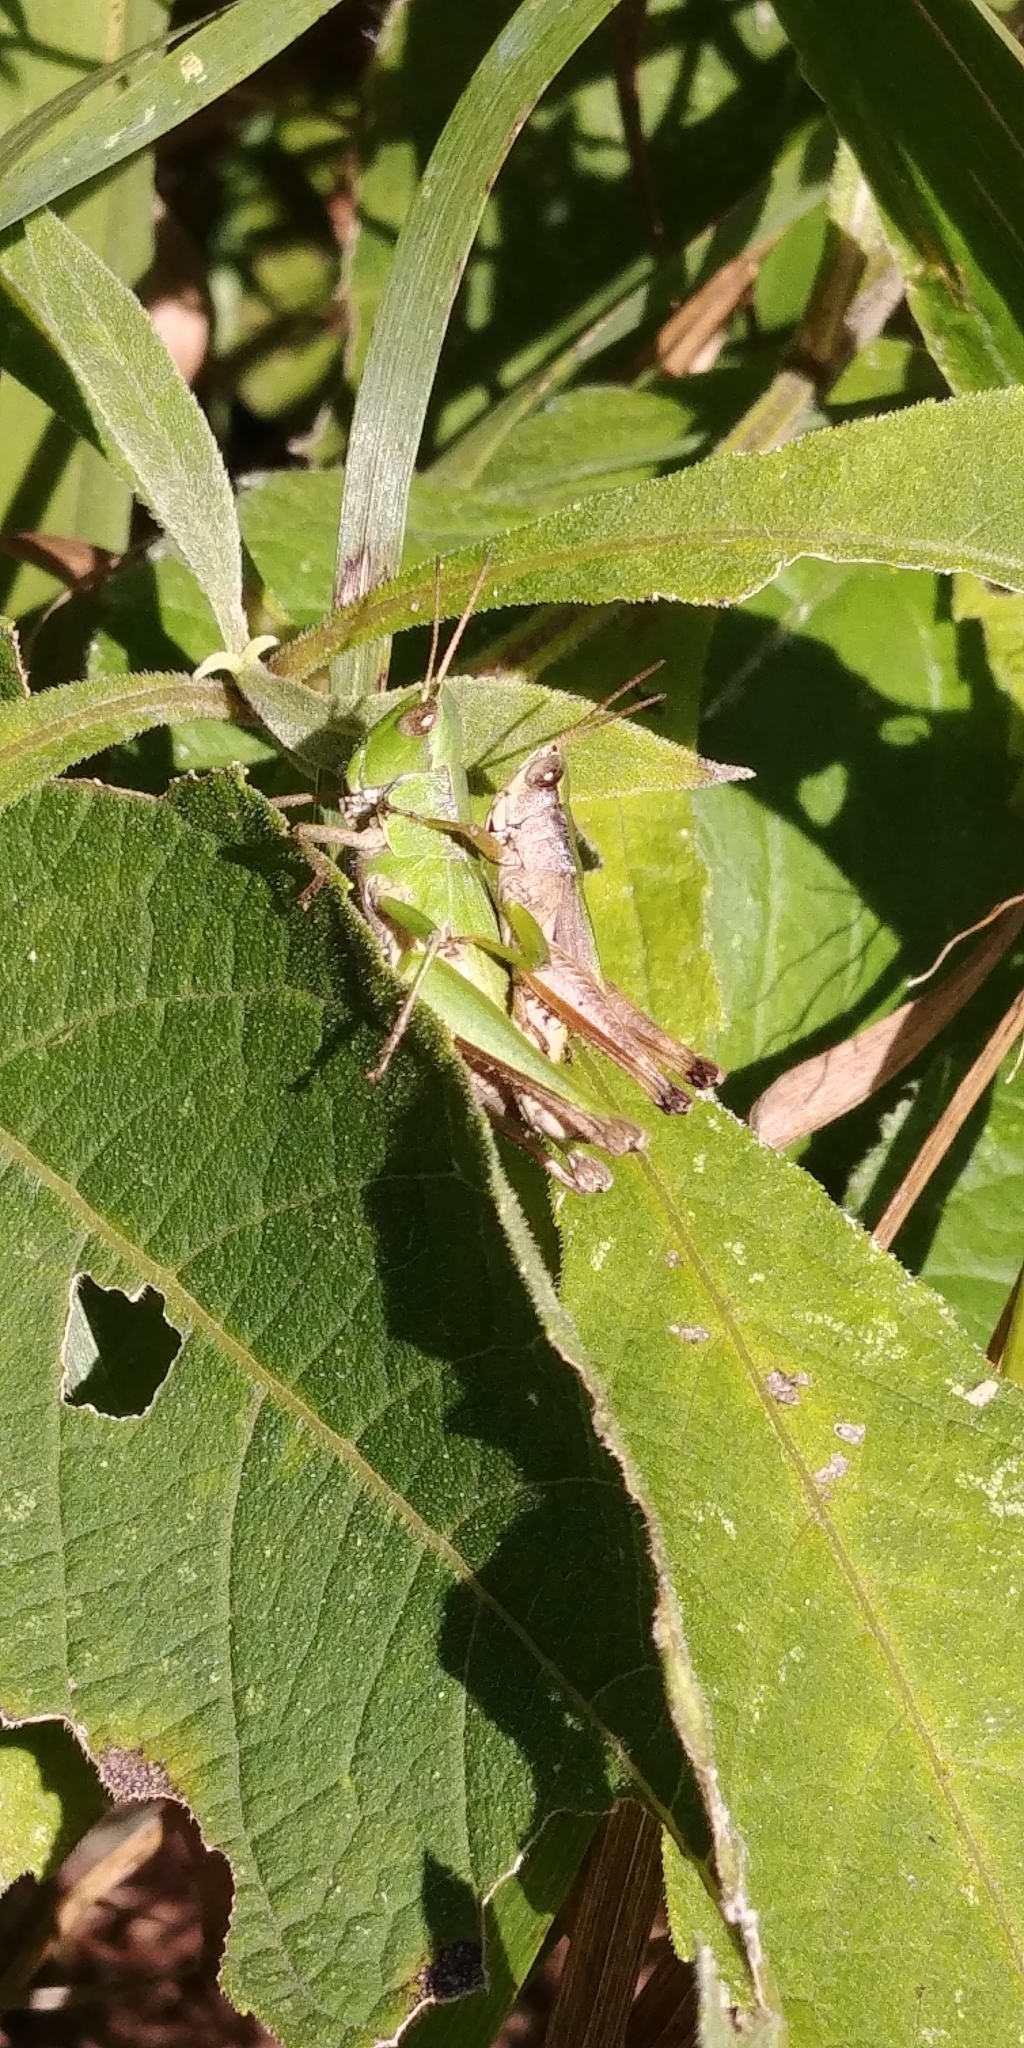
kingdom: Animalia
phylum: Arthropoda
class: Insecta
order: Orthoptera
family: Acrididae
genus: Dichromorpha
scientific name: Dichromorpha viridis
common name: Short-winged green grasshopper
